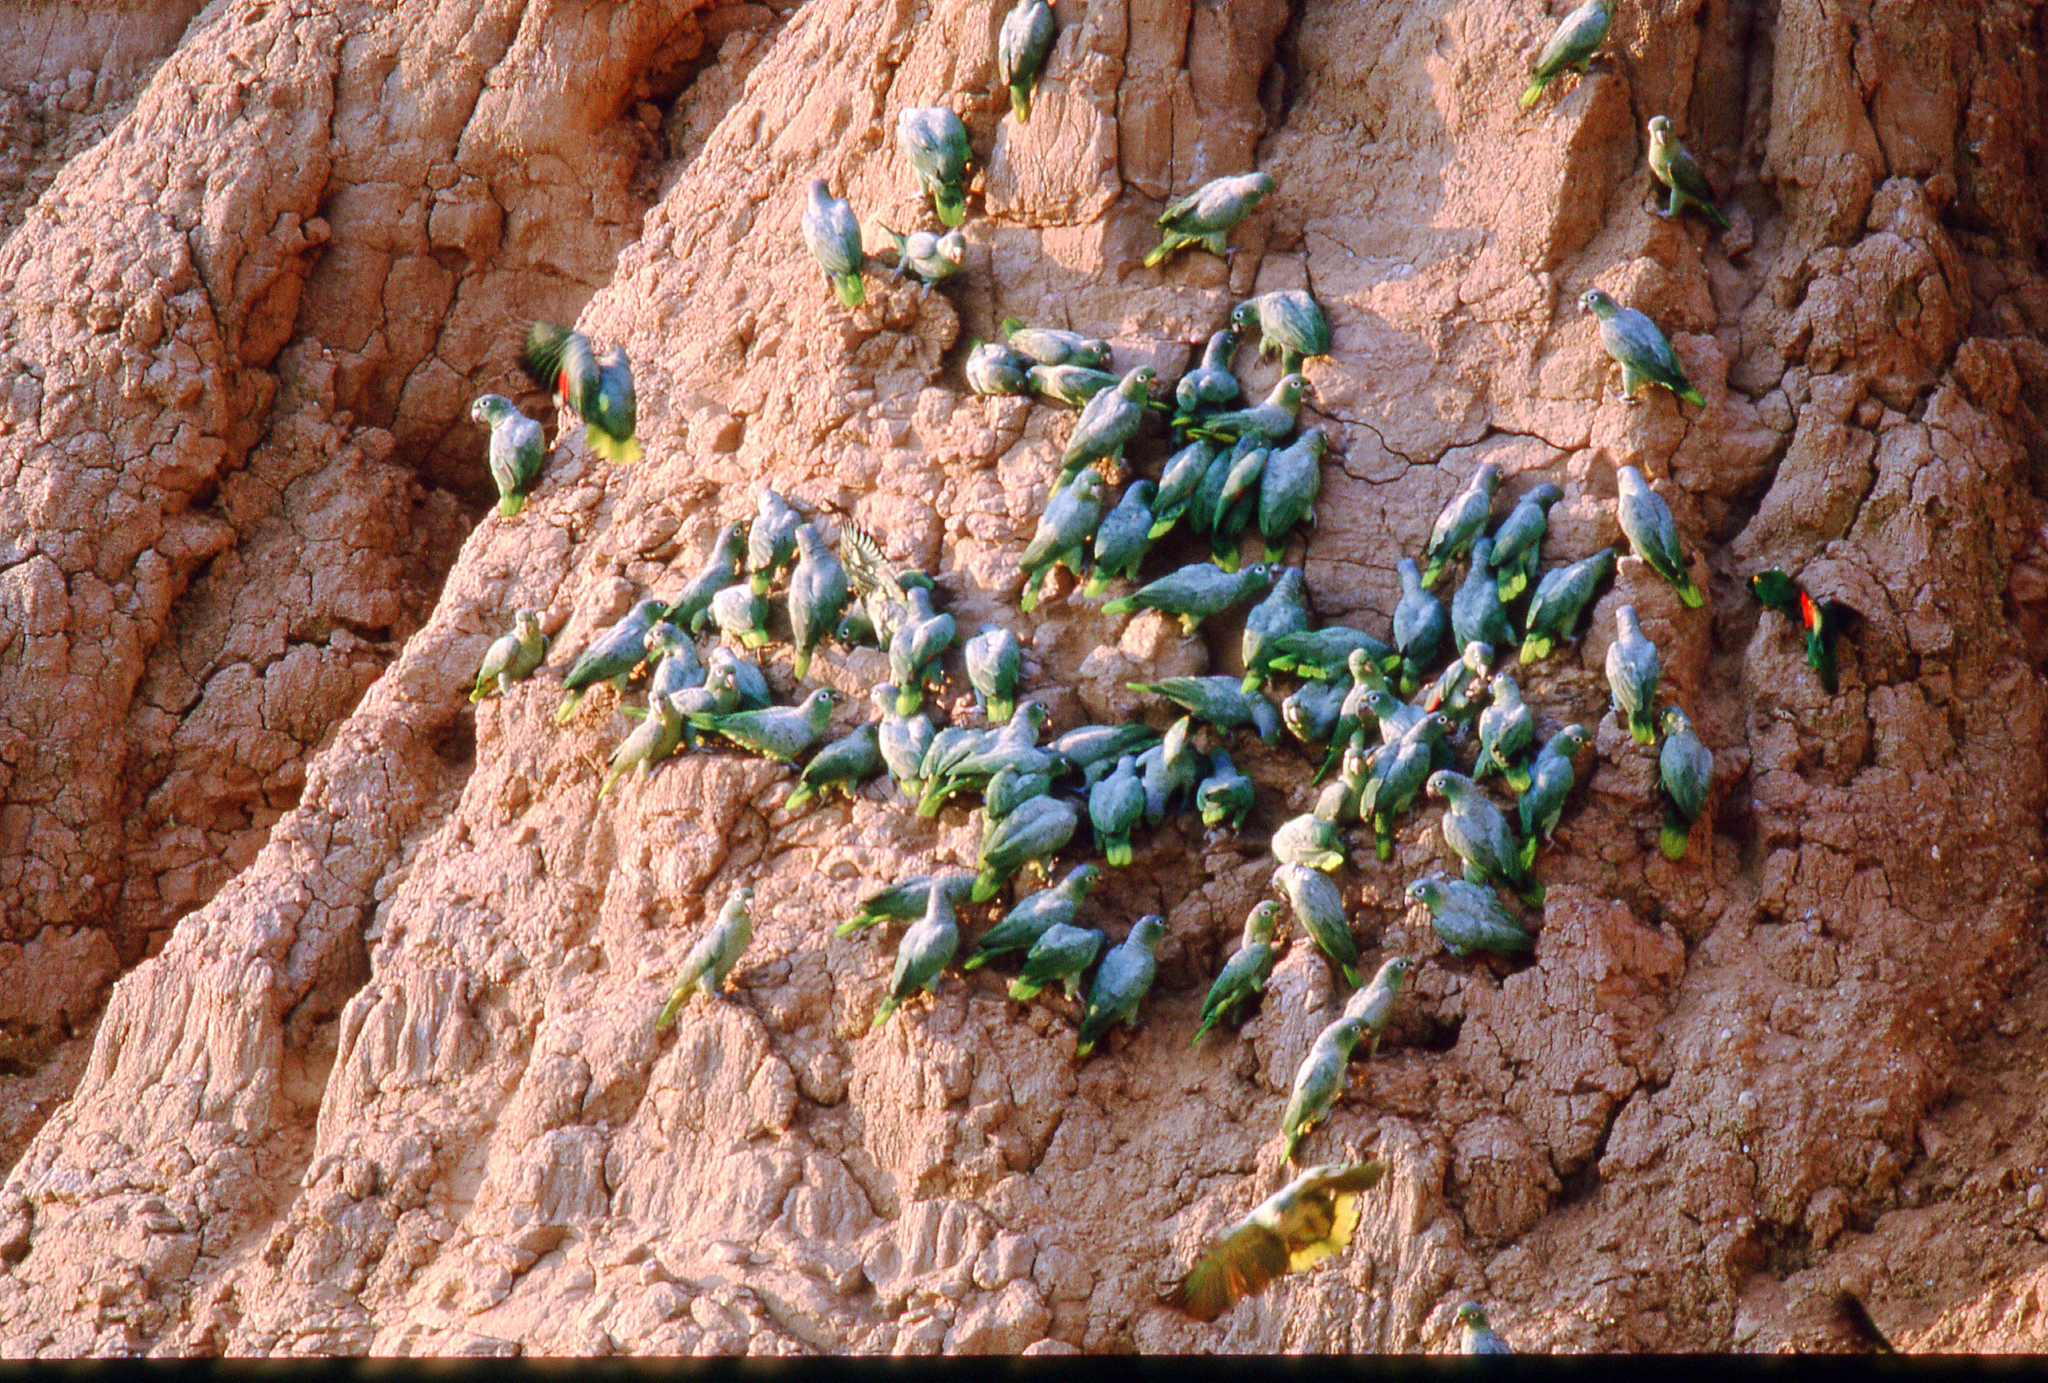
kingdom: Animalia
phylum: Chordata
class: Aves
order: Psittaciformes
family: Psittacidae
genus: Amazona
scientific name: Amazona farinosa
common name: Mealy parrot
